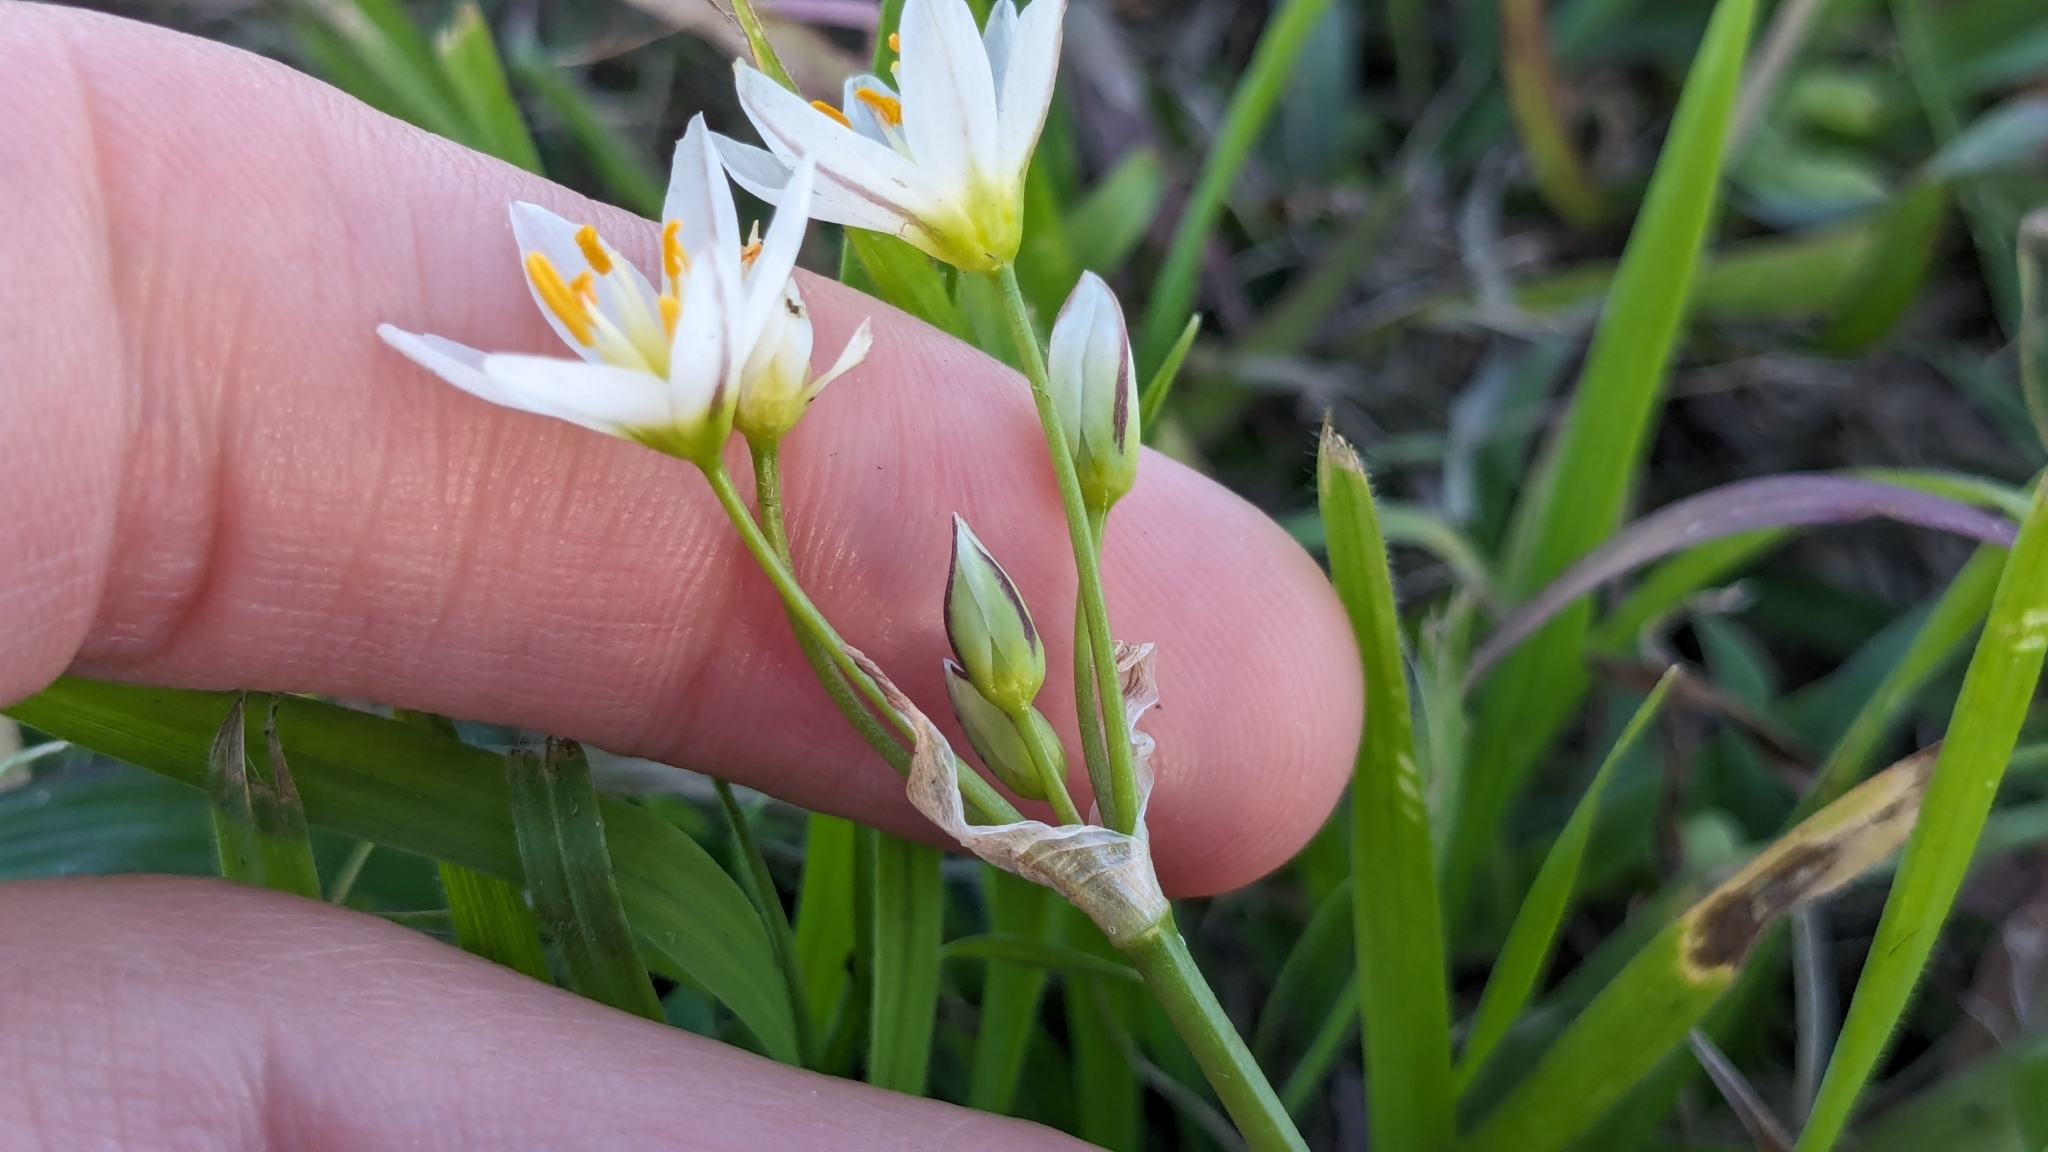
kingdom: Plantae
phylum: Tracheophyta
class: Liliopsida
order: Asparagales
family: Amaryllidaceae
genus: Nothoscordum
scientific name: Nothoscordum bivalve
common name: Crow-poison
